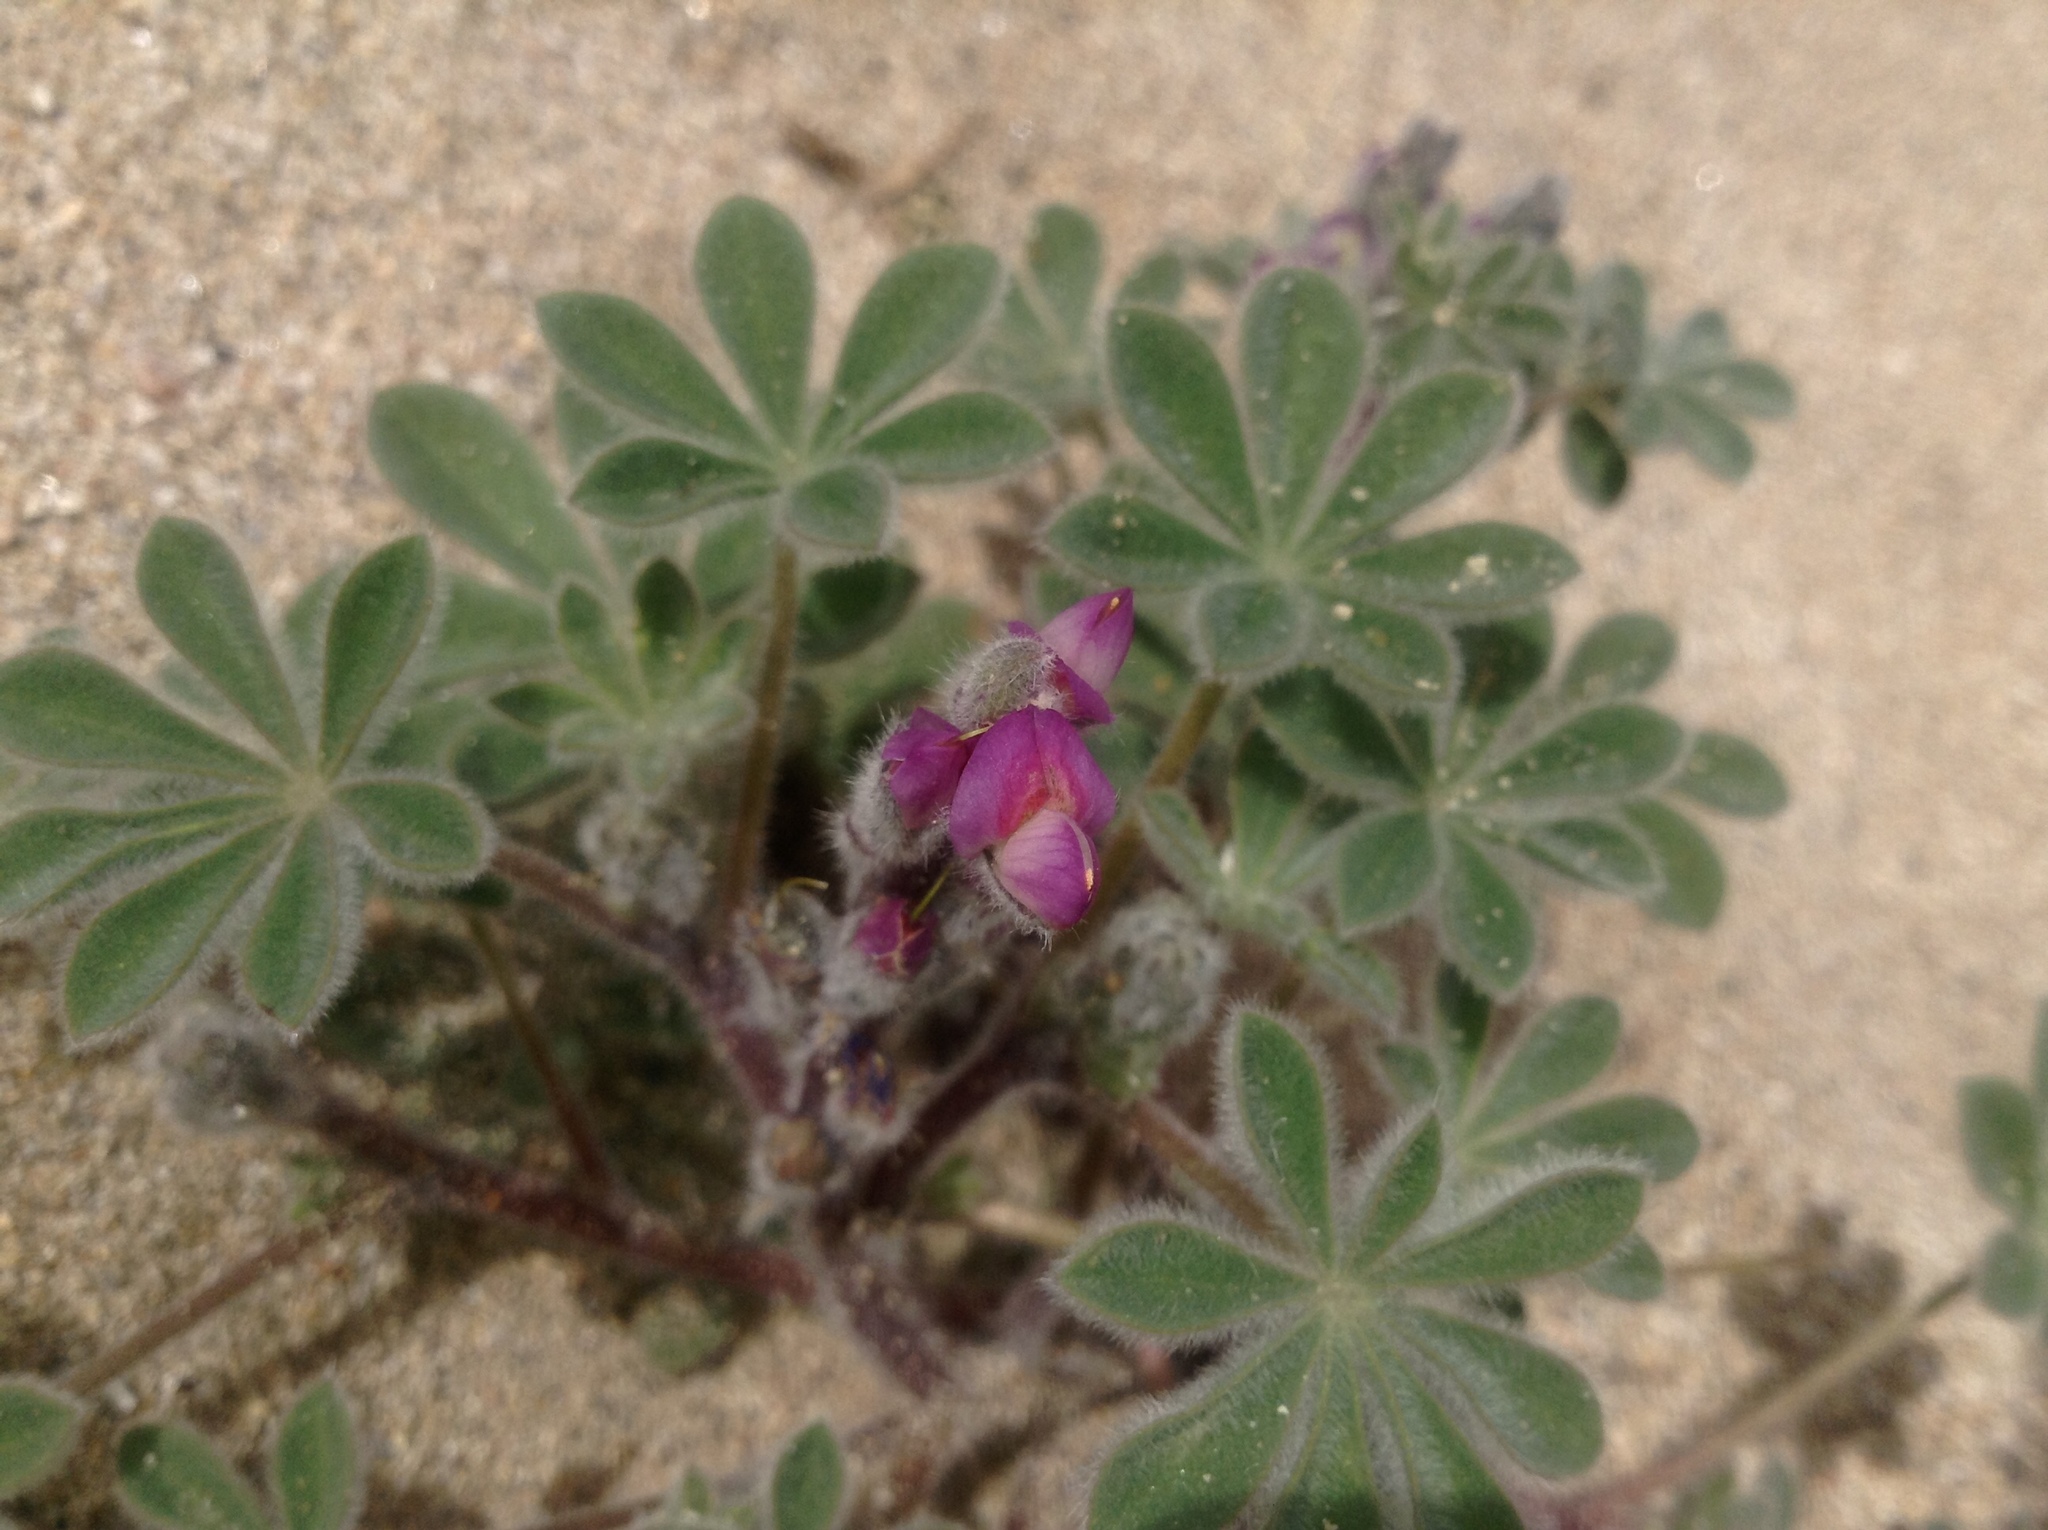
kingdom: Plantae
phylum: Tracheophyta
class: Magnoliopsida
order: Fabales
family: Fabaceae
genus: Lupinus
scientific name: Lupinus concinnus
